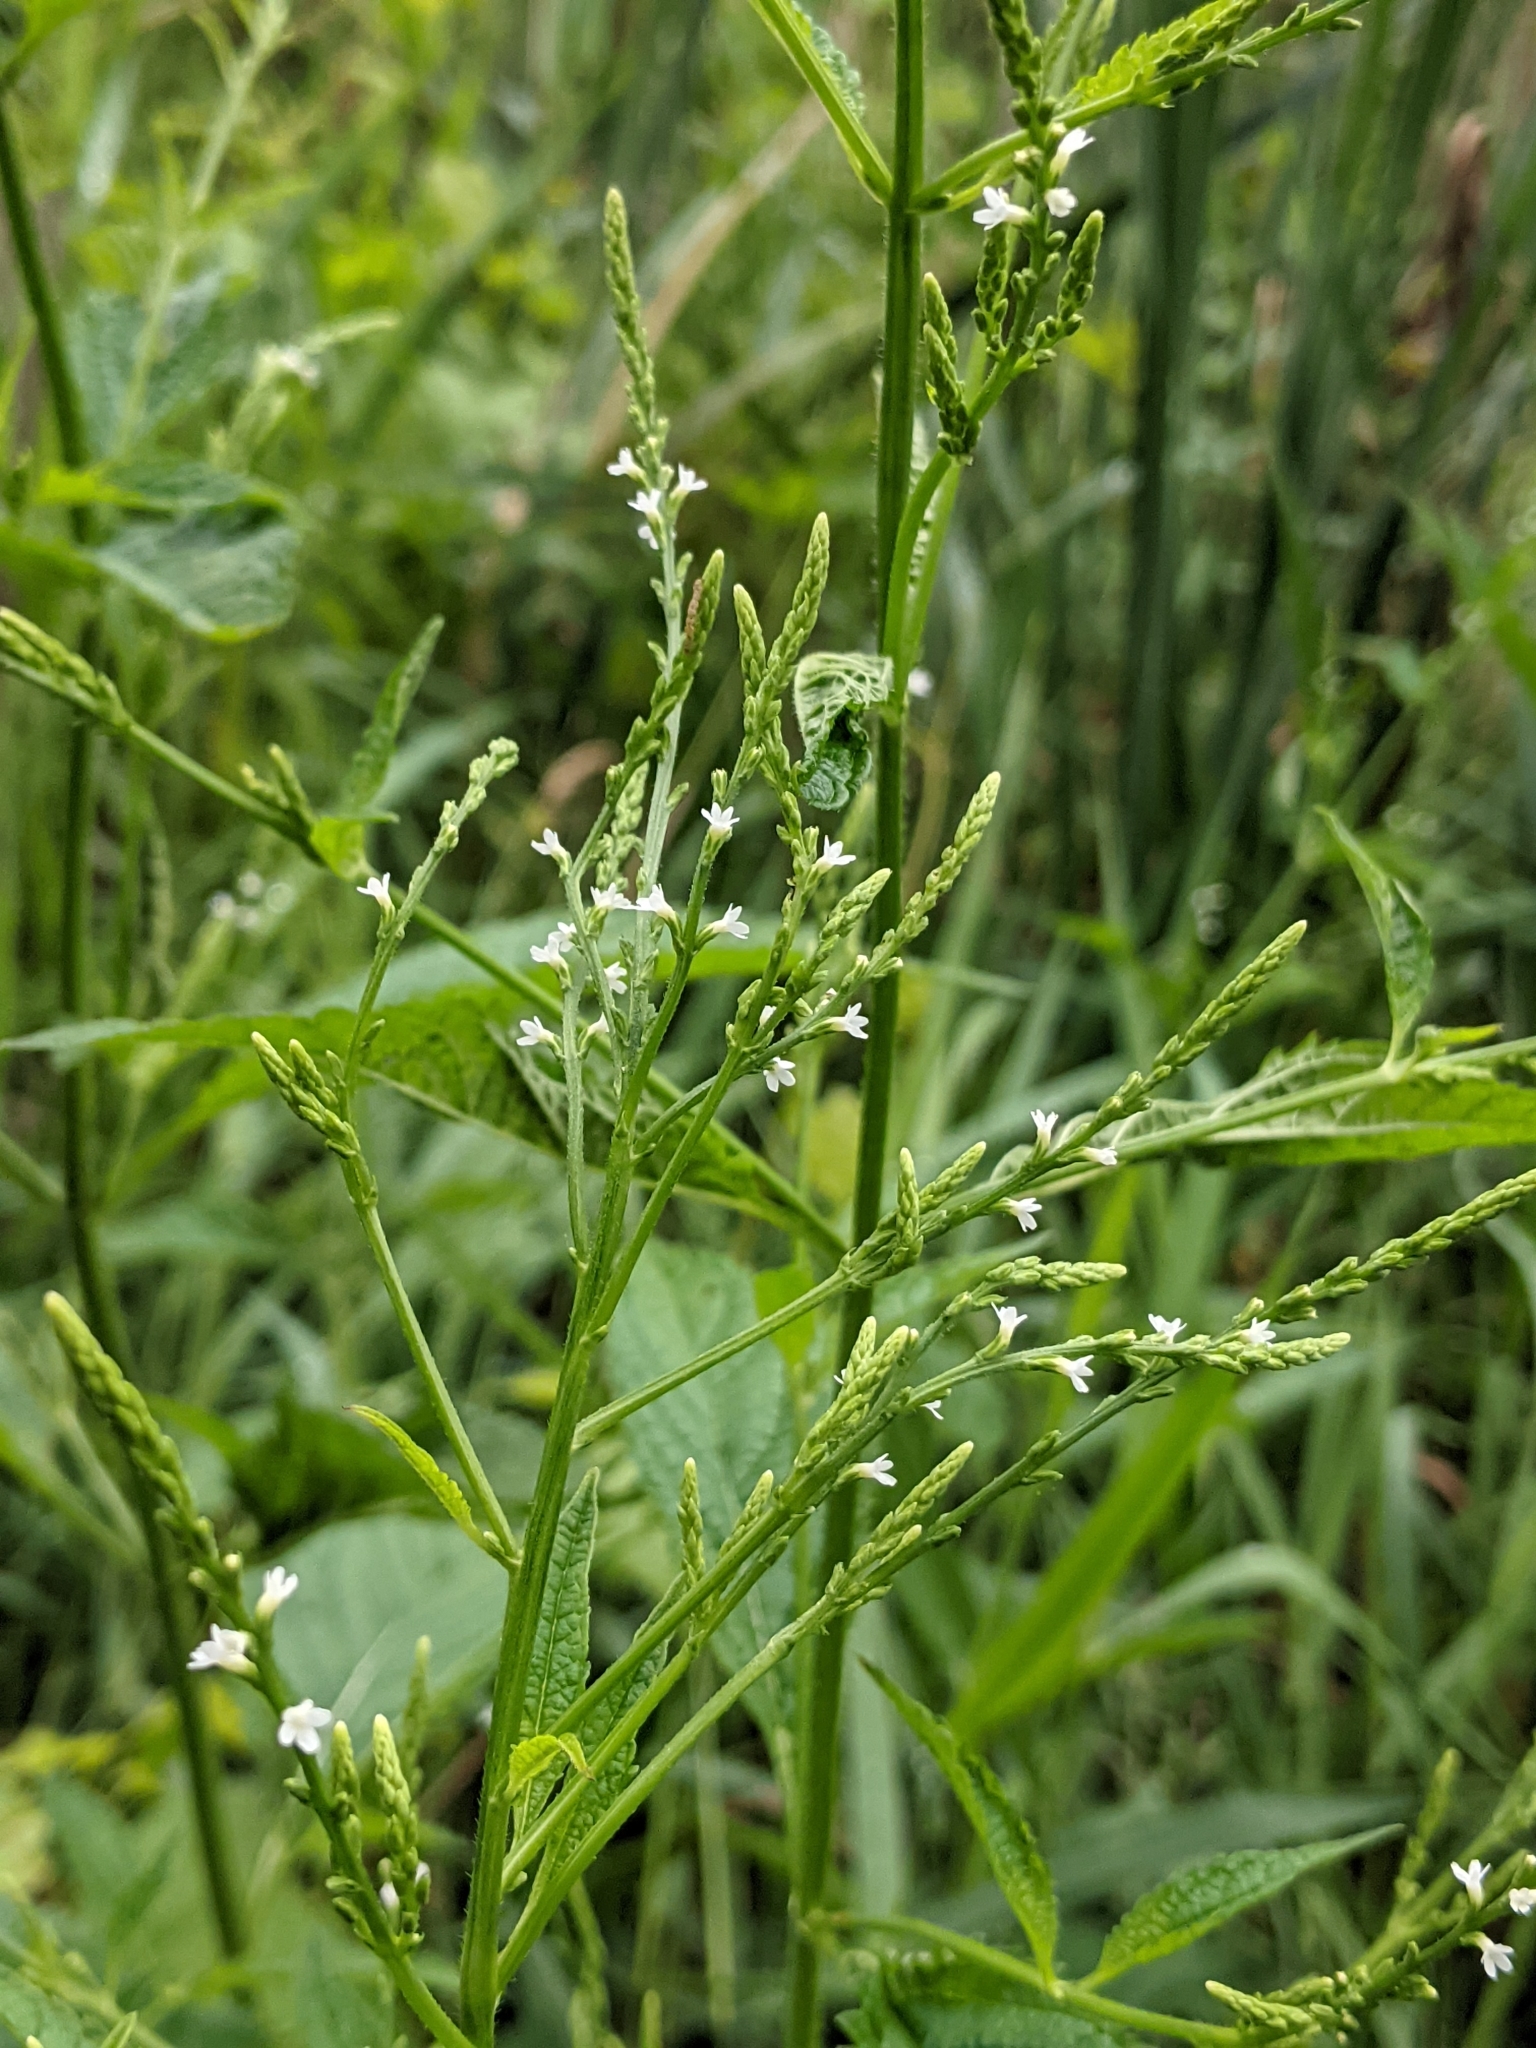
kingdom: Plantae
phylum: Tracheophyta
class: Magnoliopsida
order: Lamiales
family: Verbenaceae
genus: Verbena
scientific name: Verbena urticifolia
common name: Nettle-leaved vervain
